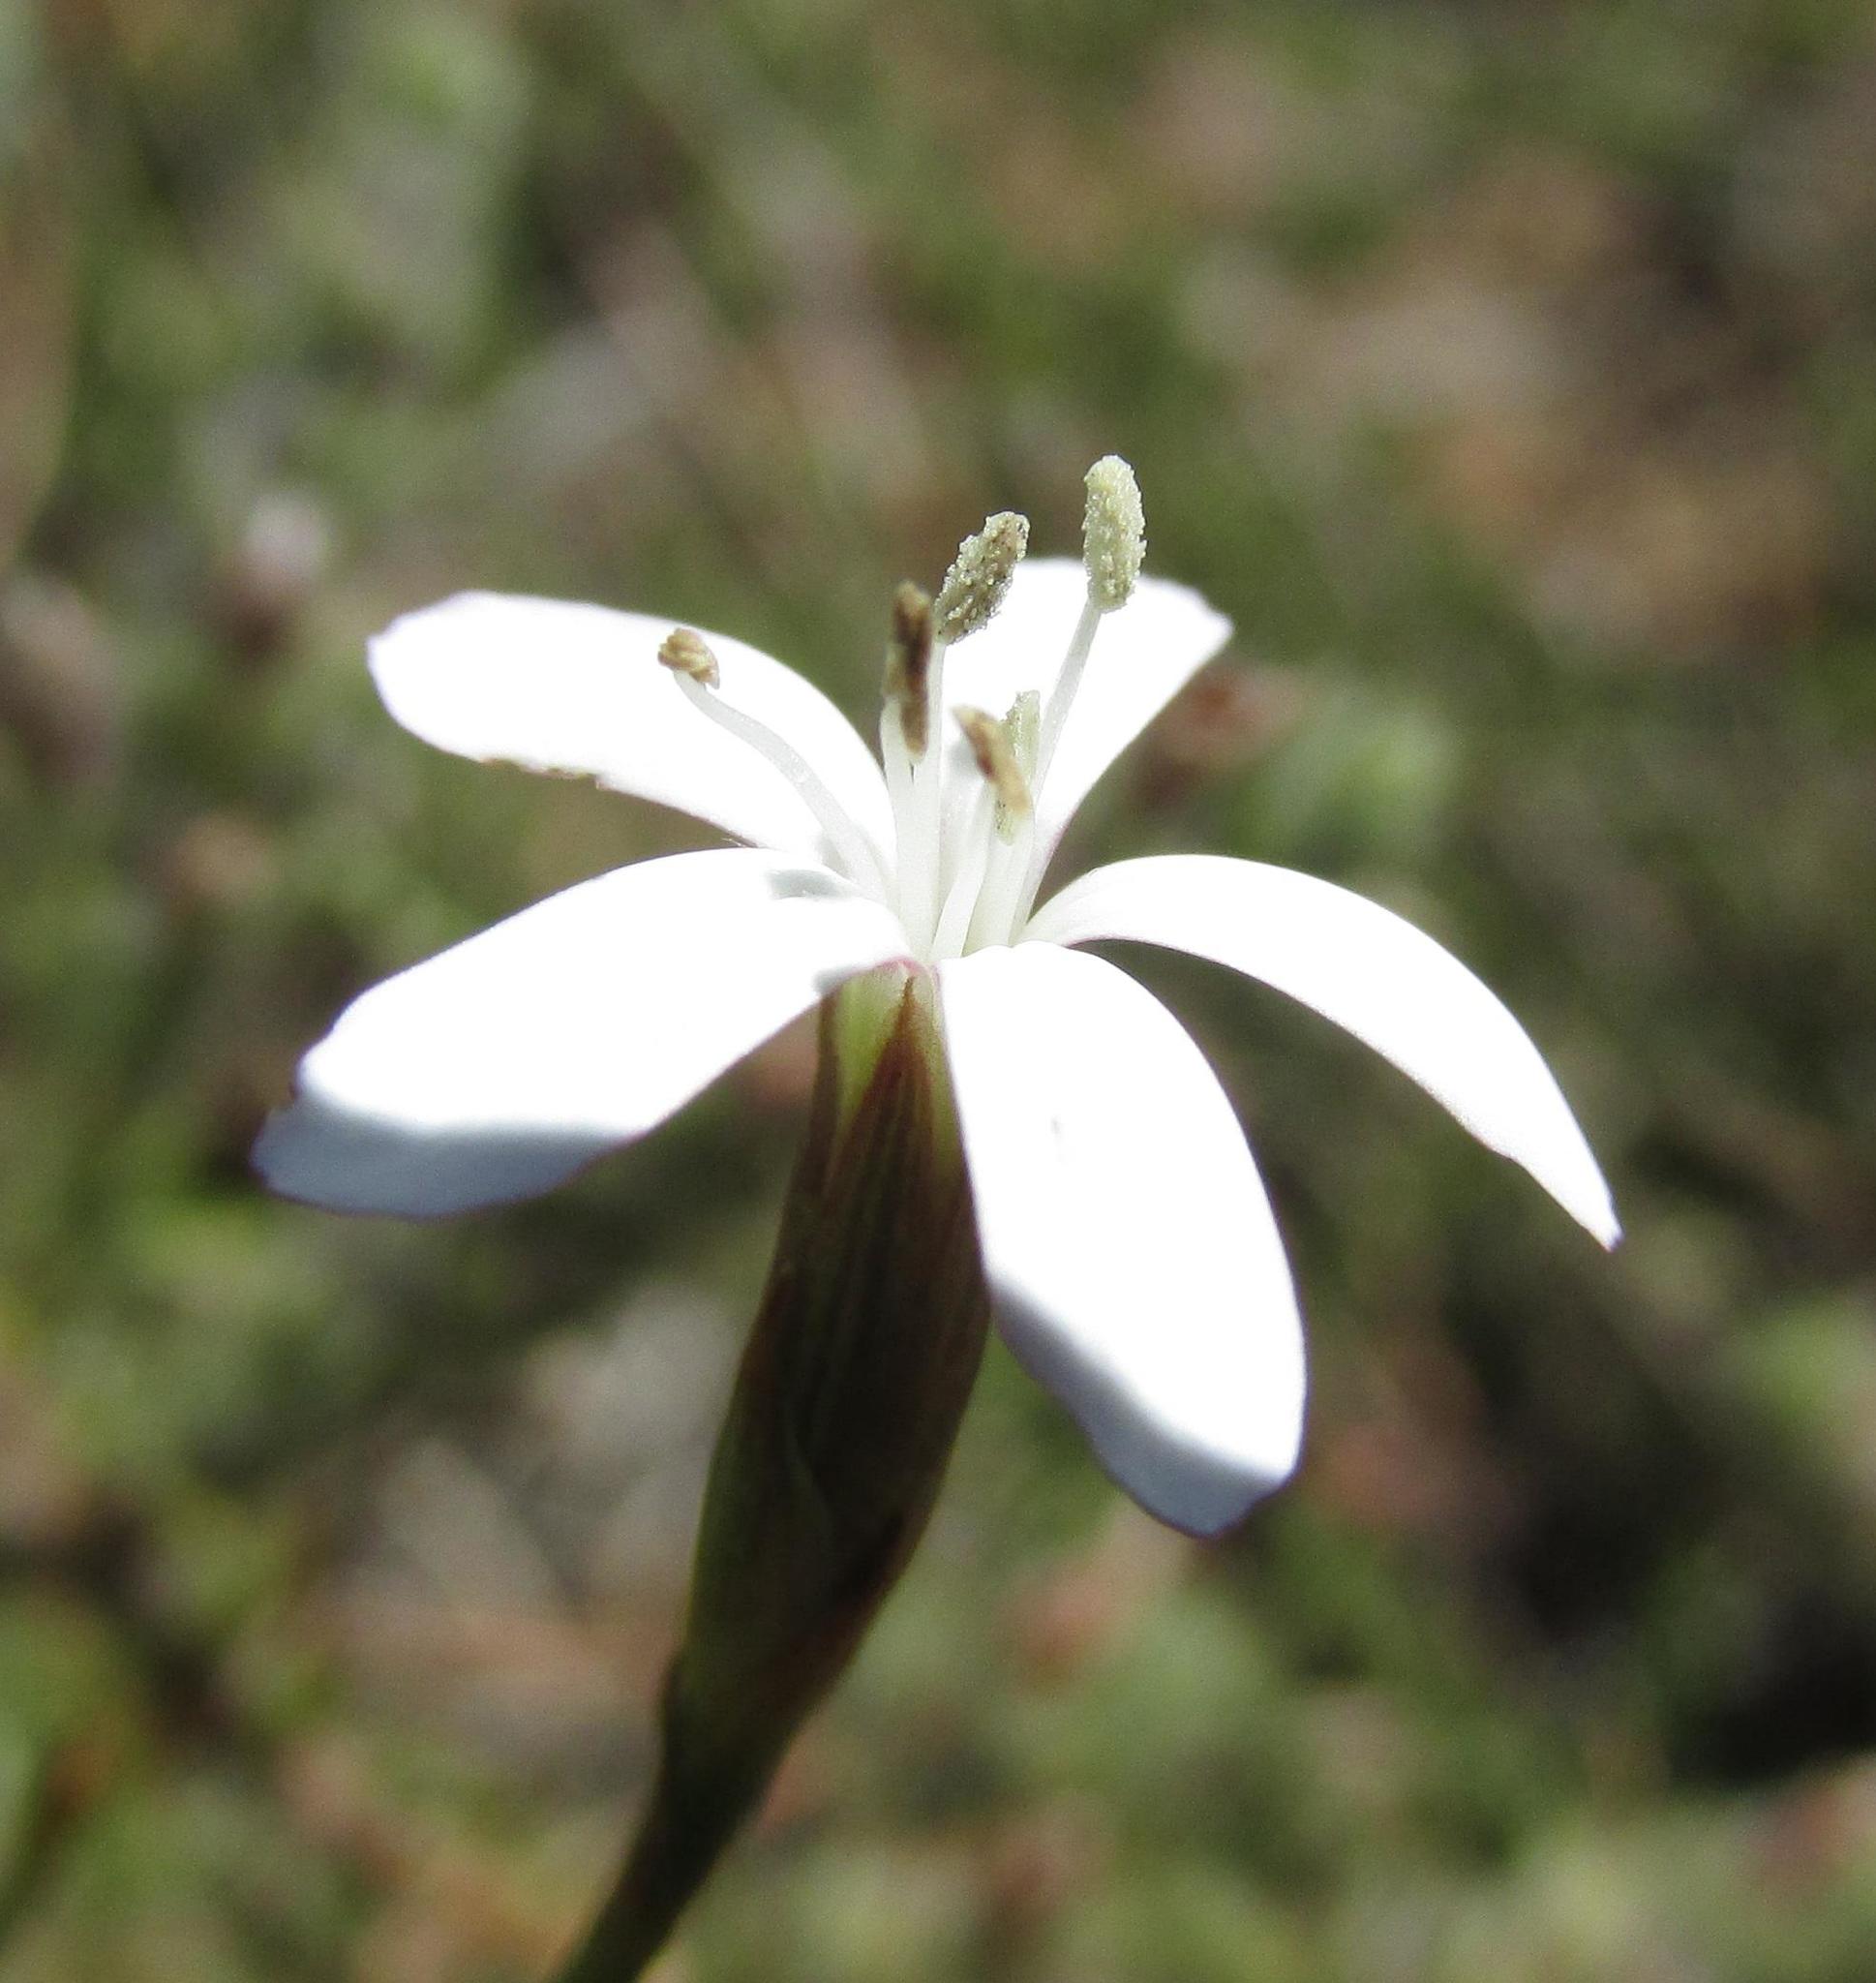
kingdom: Plantae
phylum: Tracheophyta
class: Magnoliopsida
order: Caryophyllales
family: Caryophyllaceae
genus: Dianthus
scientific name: Dianthus holopetalus
